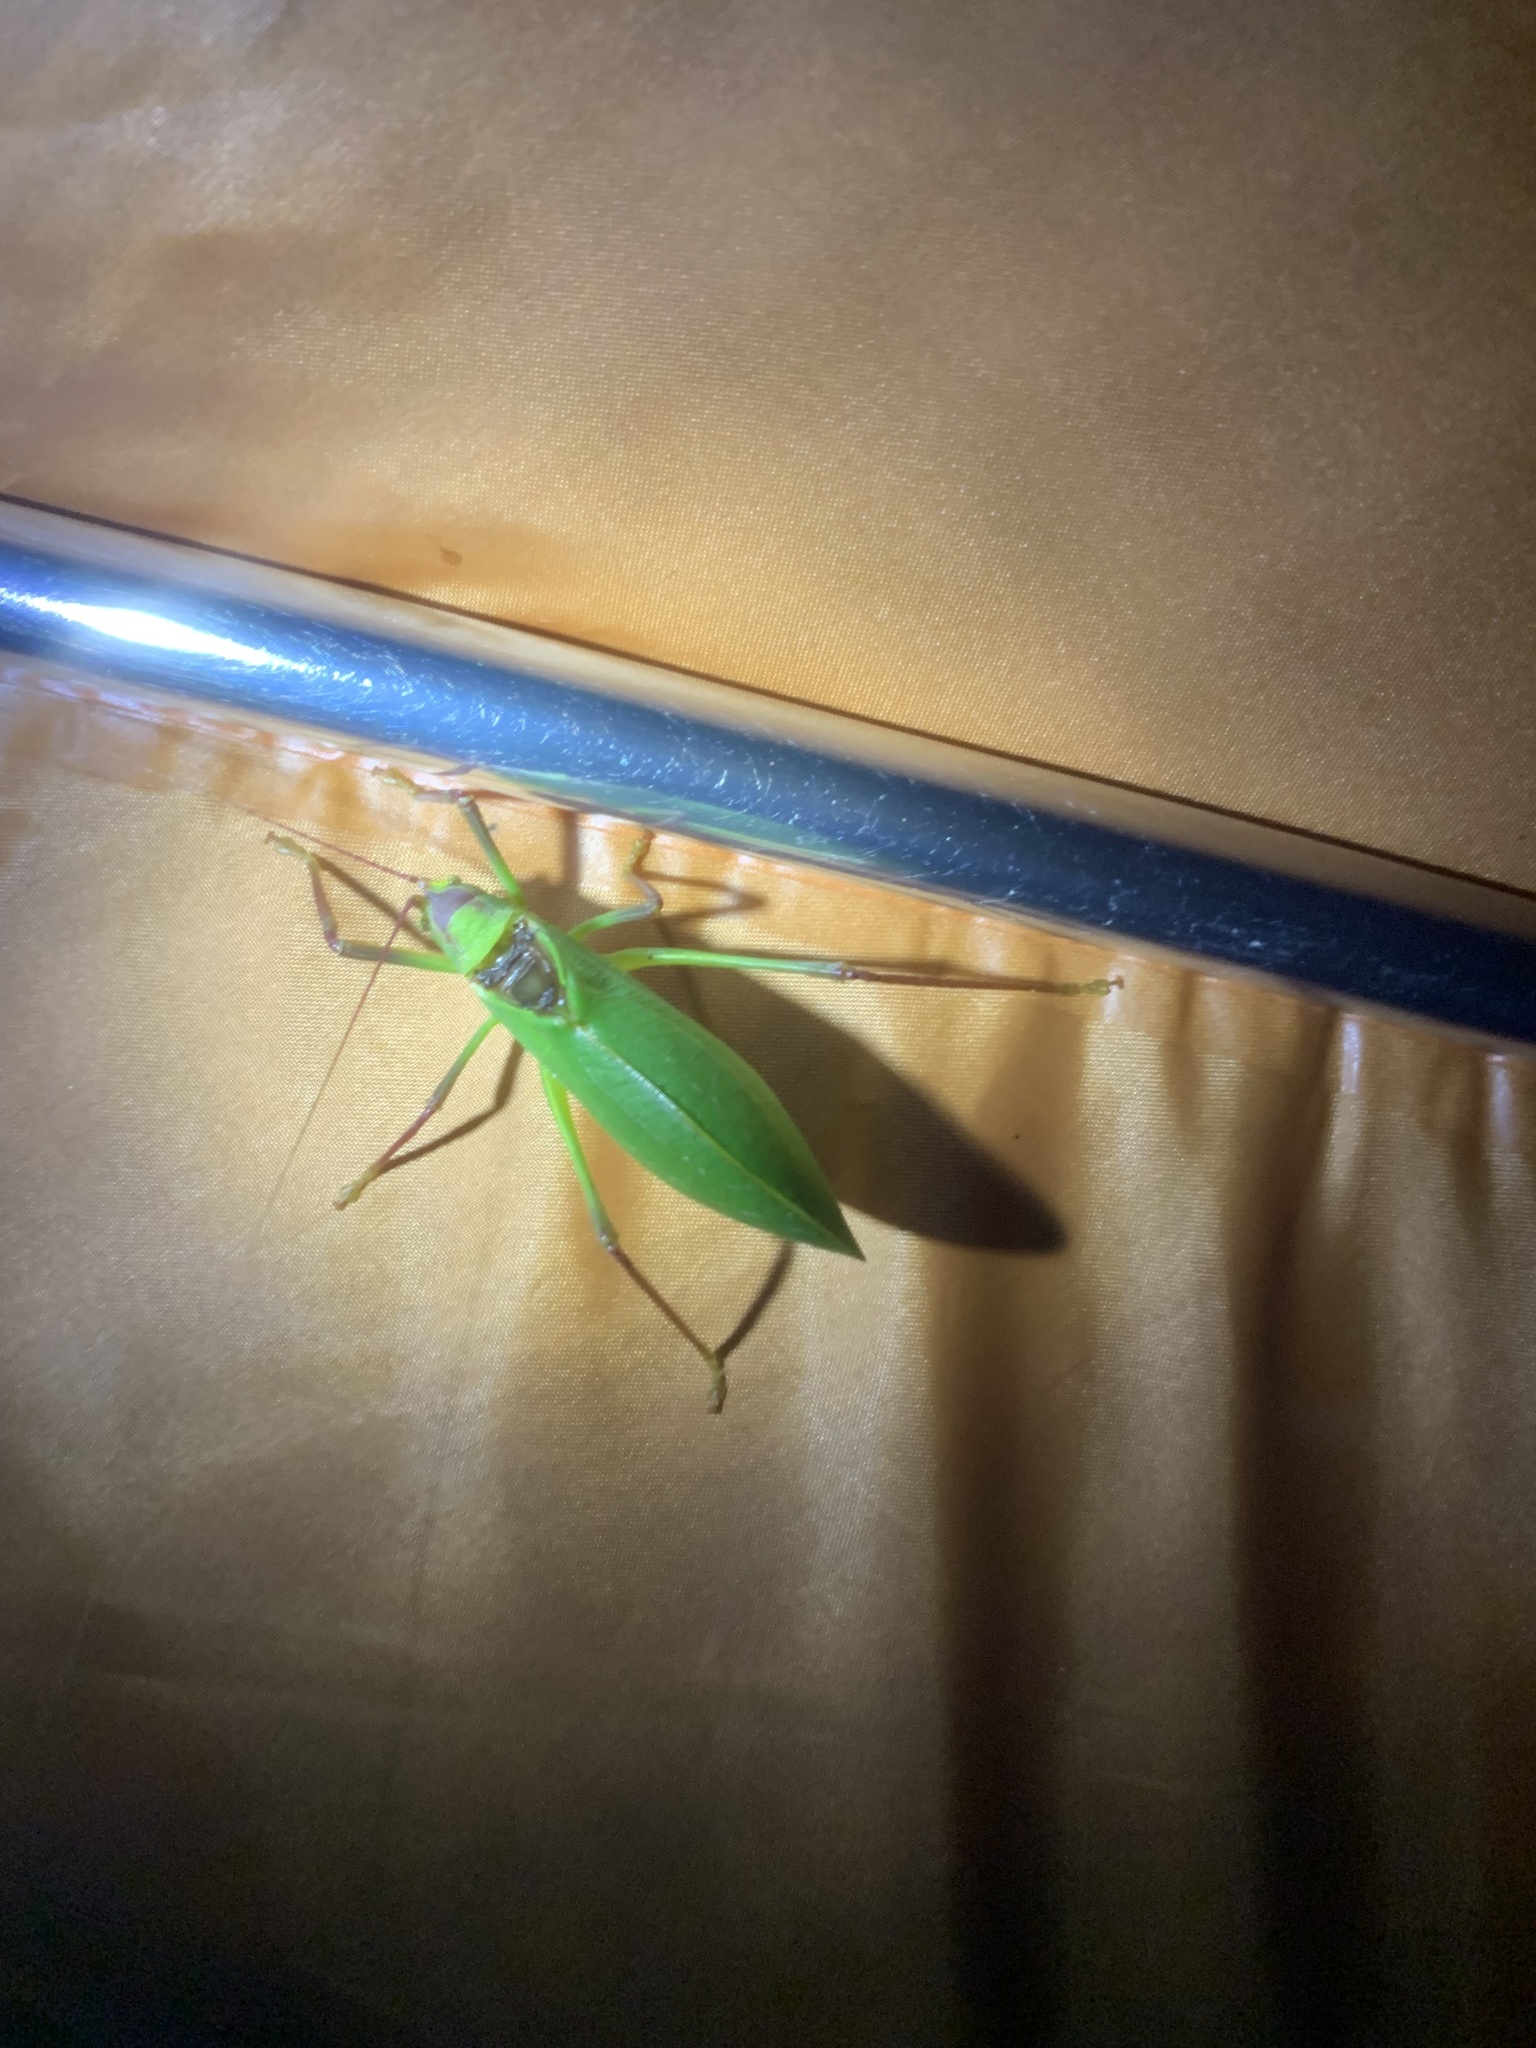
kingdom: Animalia
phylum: Arthropoda
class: Insecta
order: Orthoptera
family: Tettigoniidae
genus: Pterophylla
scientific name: Pterophylla camellifolia
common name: Common true katydid
